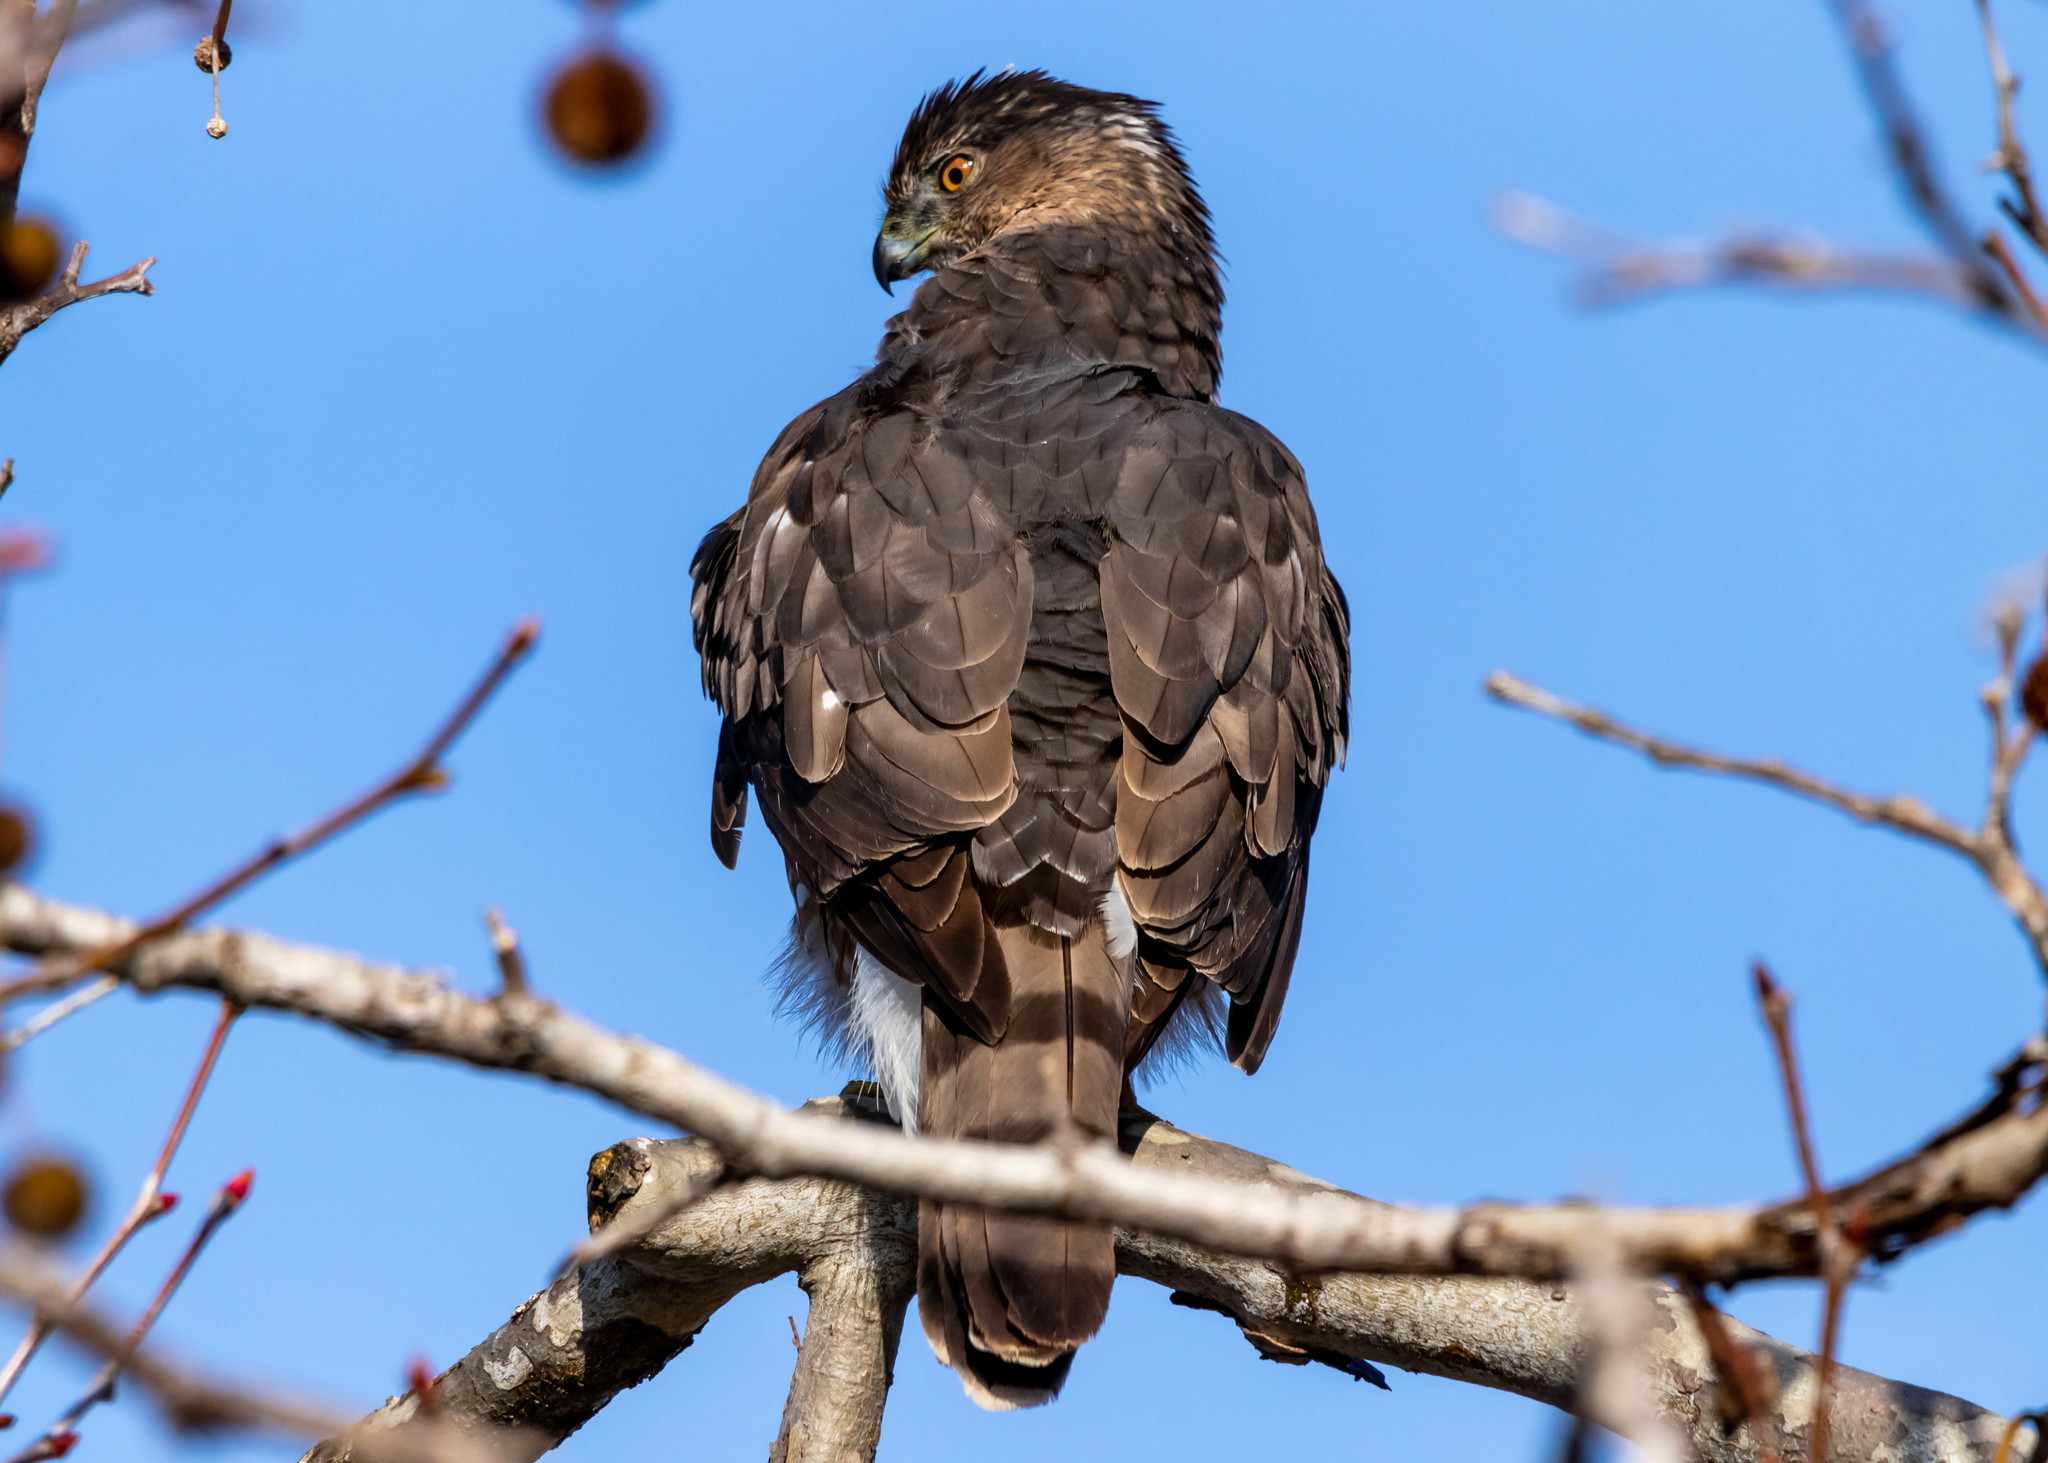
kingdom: Animalia
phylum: Chordata
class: Aves
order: Accipitriformes
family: Accipitridae
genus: Accipiter
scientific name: Accipiter cooperii
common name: Cooper's hawk
